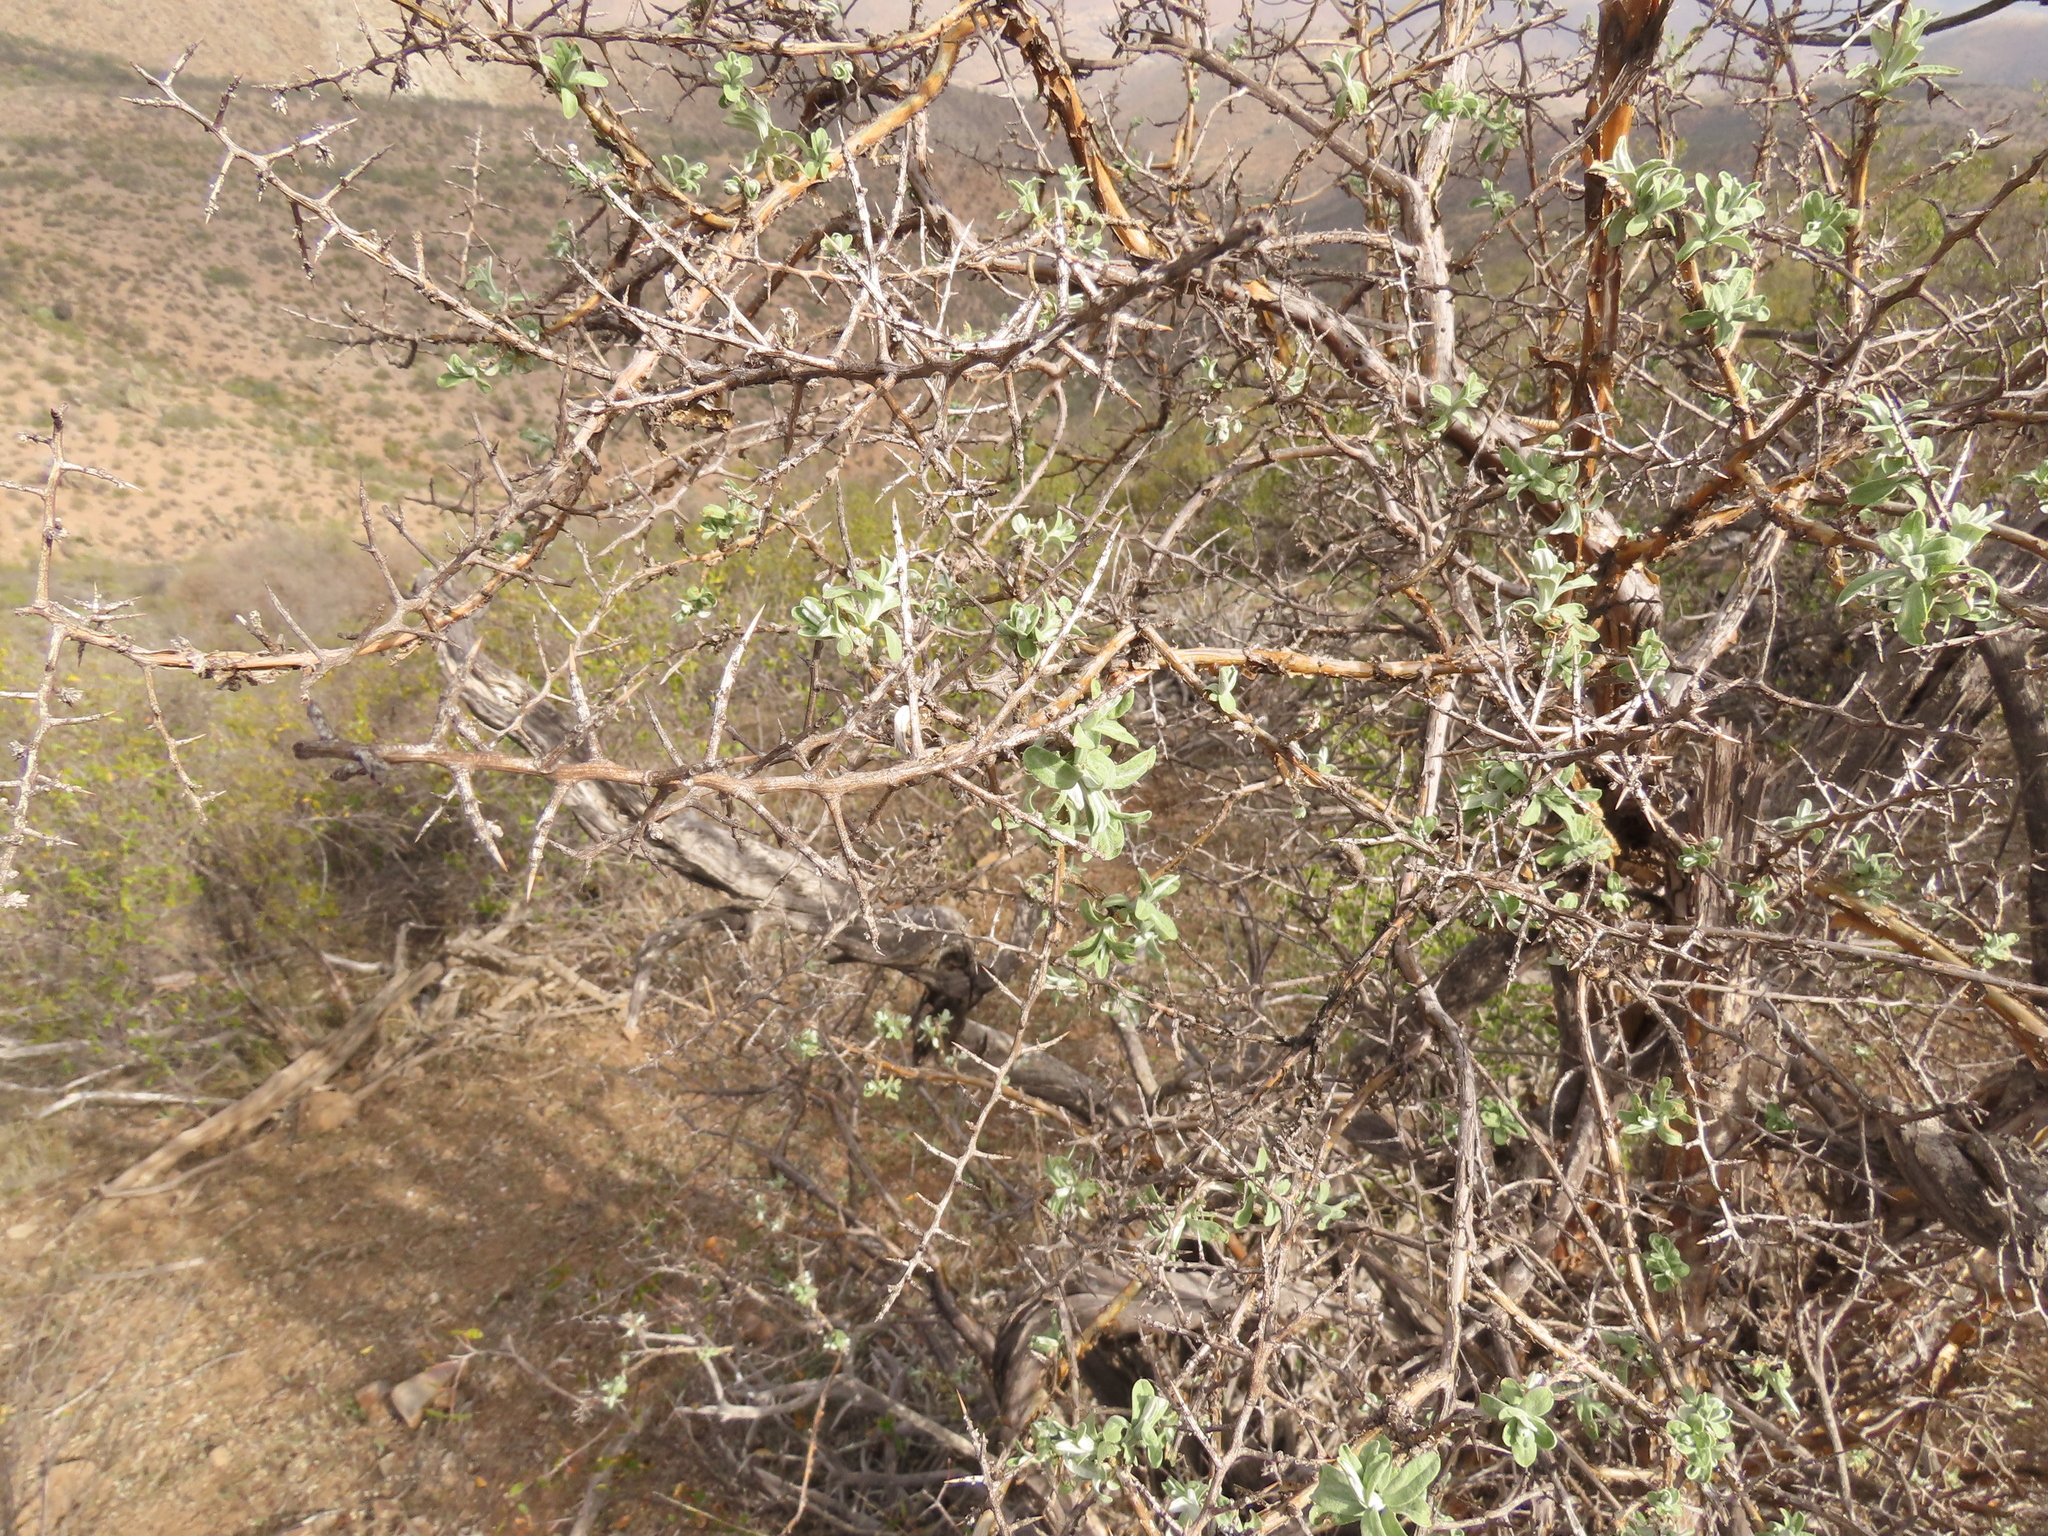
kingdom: Plantae
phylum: Tracheophyta
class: Magnoliopsida
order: Asterales
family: Asteraceae
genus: Proustia
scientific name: Proustia cuneifolia
